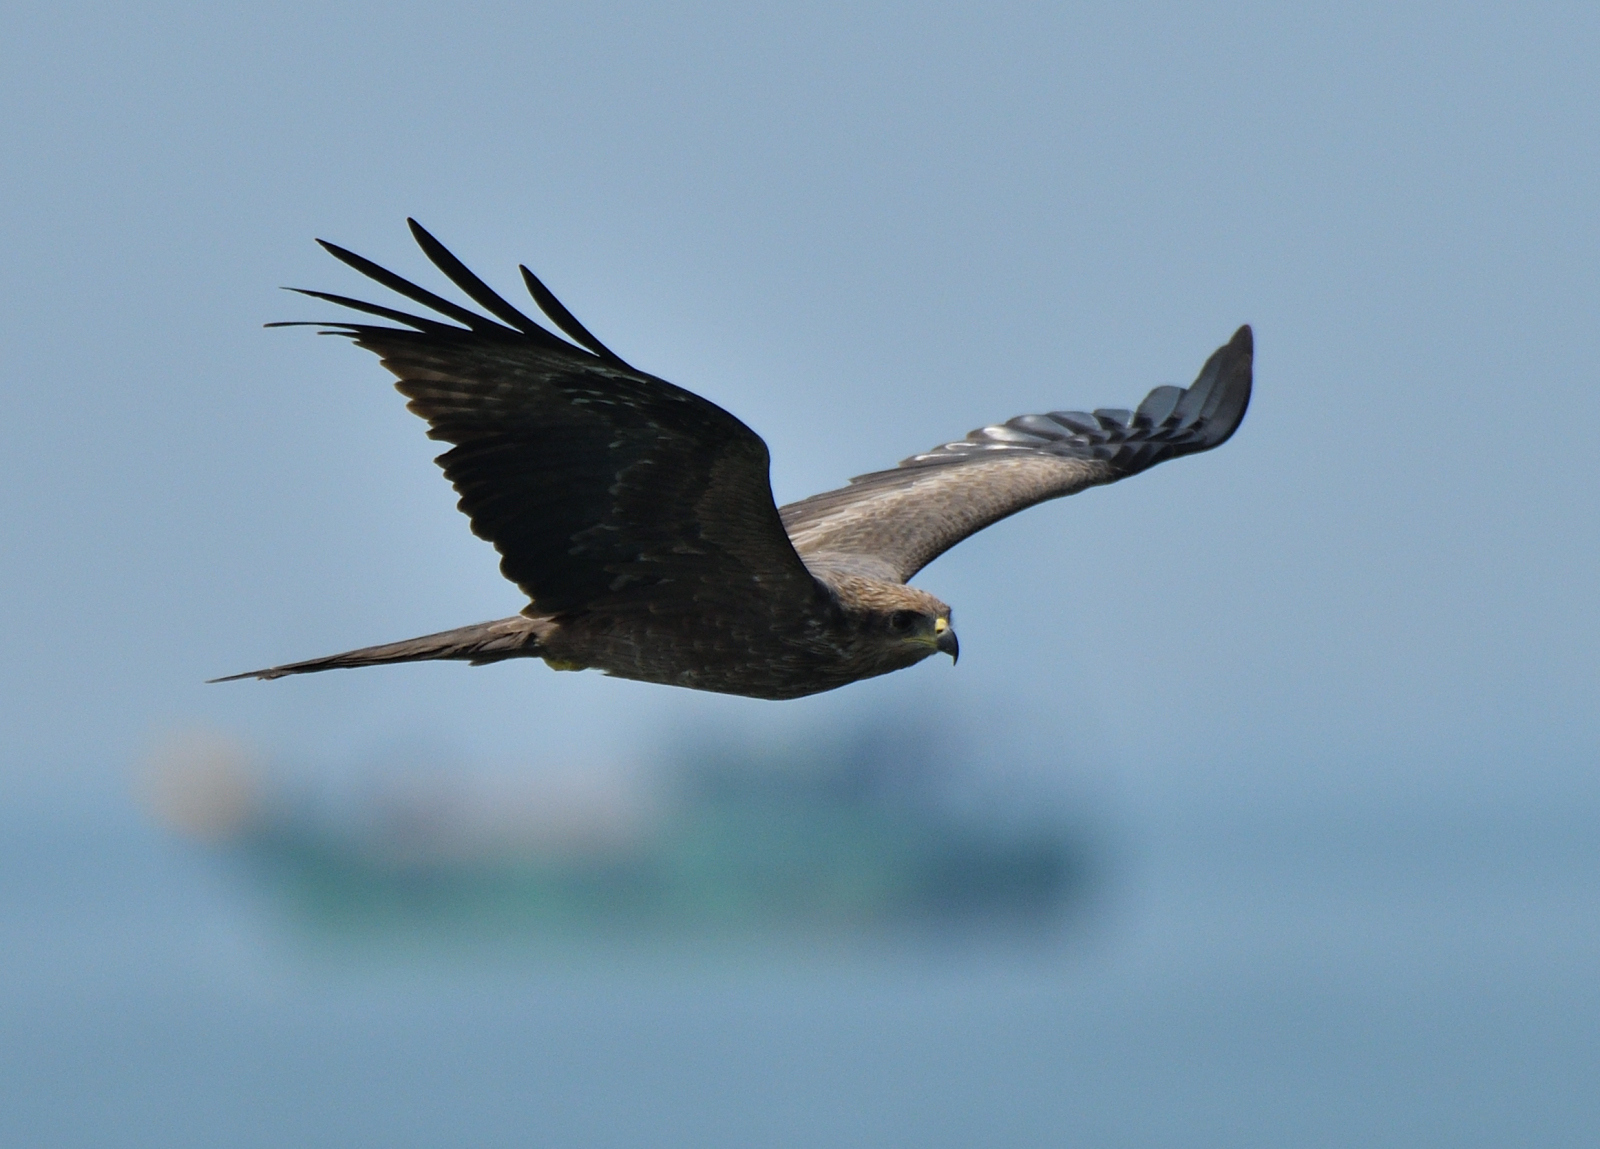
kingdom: Animalia
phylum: Chordata
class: Aves
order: Accipitriformes
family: Accipitridae
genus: Milvus
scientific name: Milvus migrans
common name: Black kite
